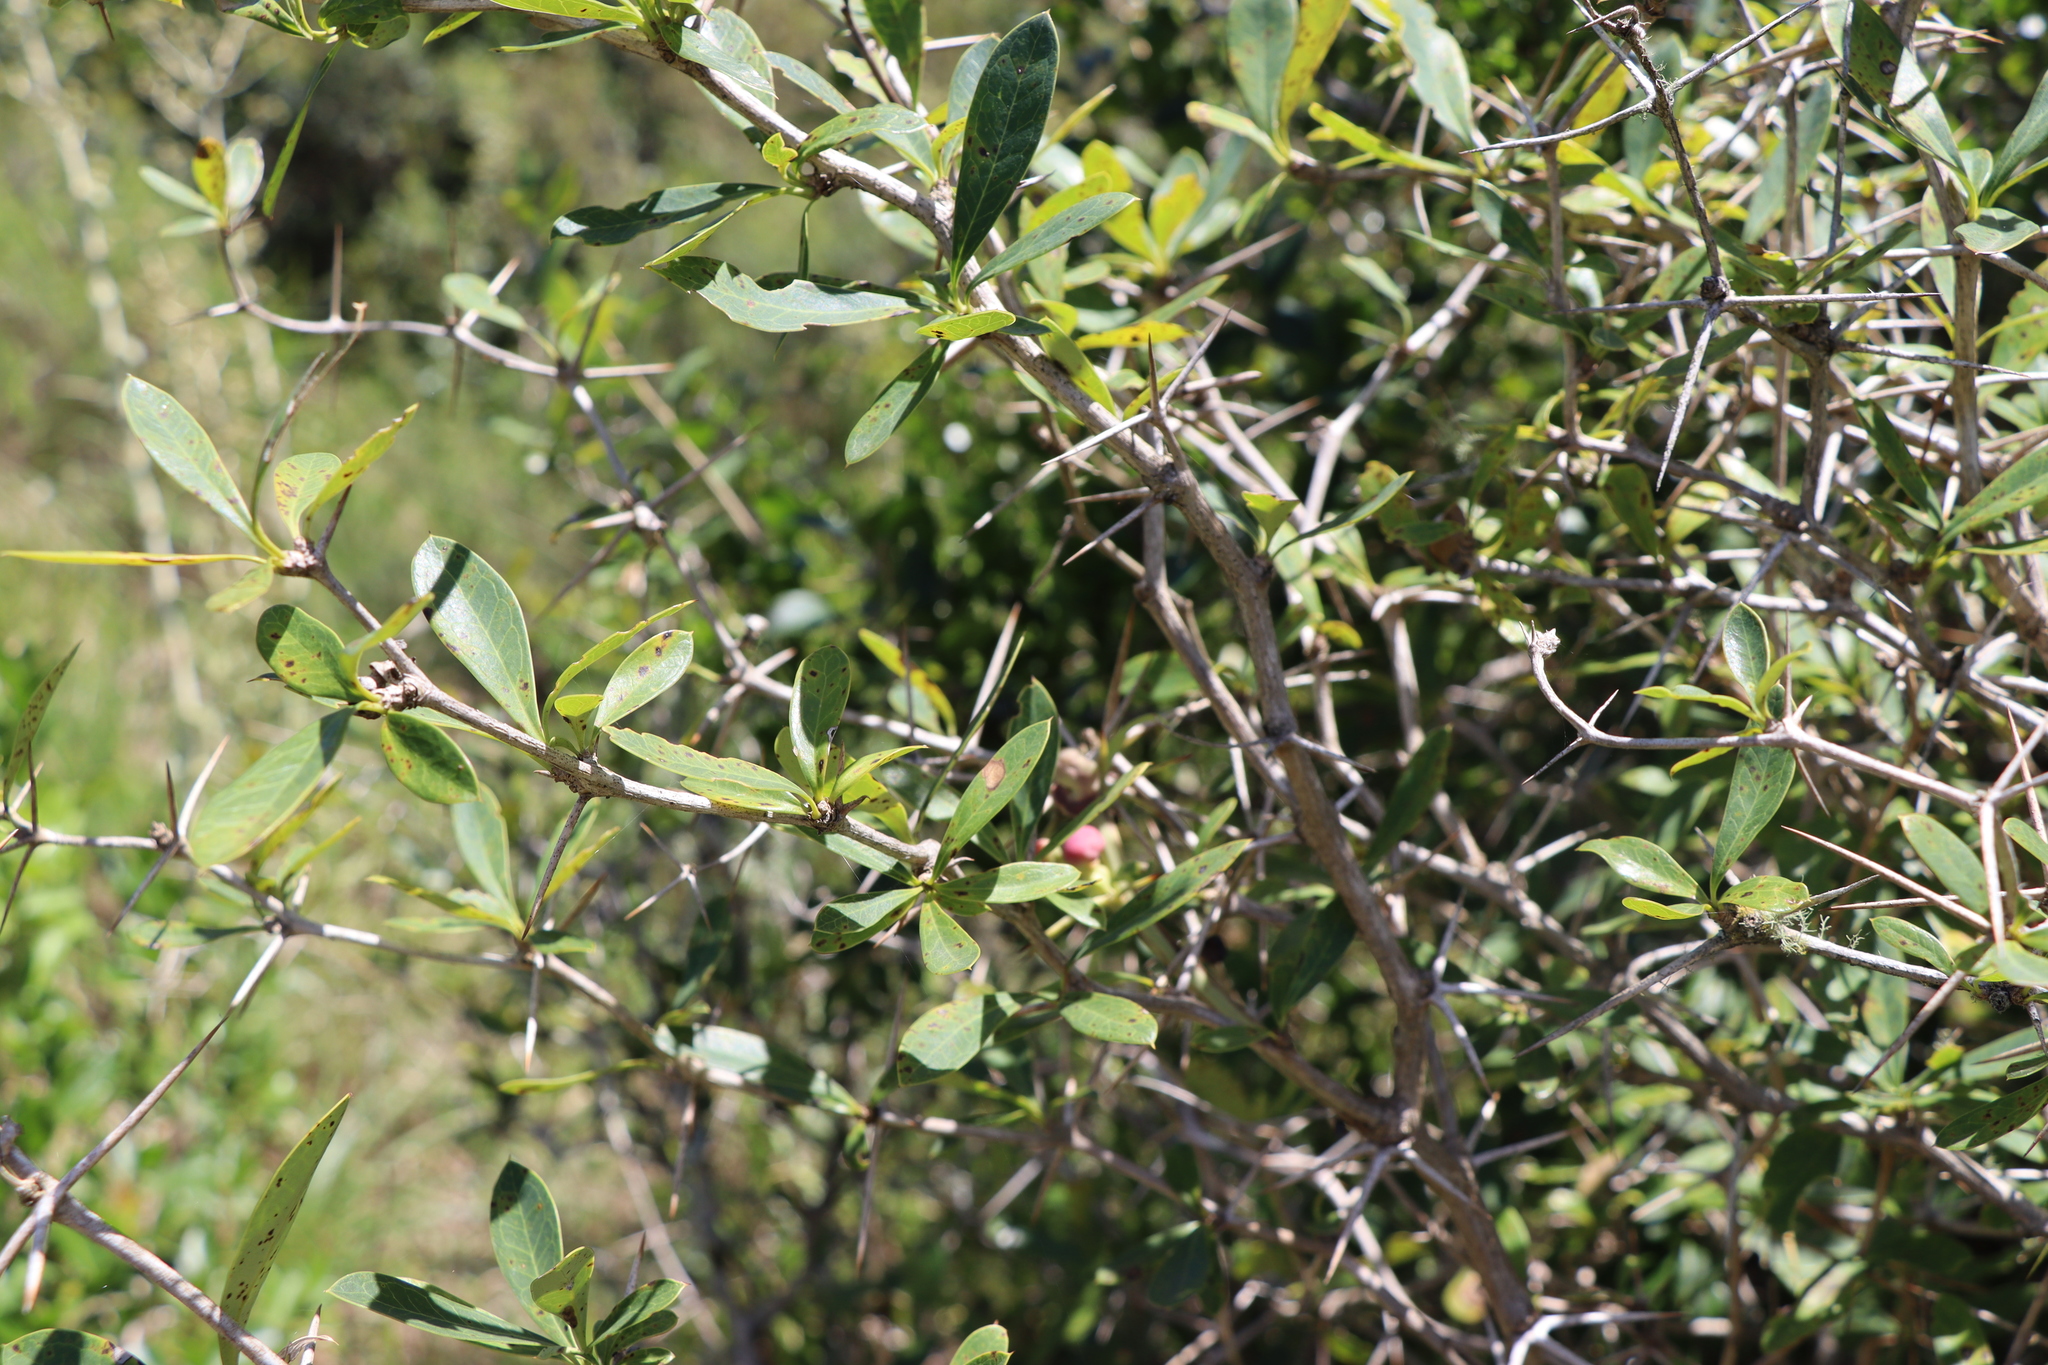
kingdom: Plantae
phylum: Tracheophyta
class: Magnoliopsida
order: Ranunculales
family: Berberidaceae
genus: Berberis
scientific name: Berberis laurina
